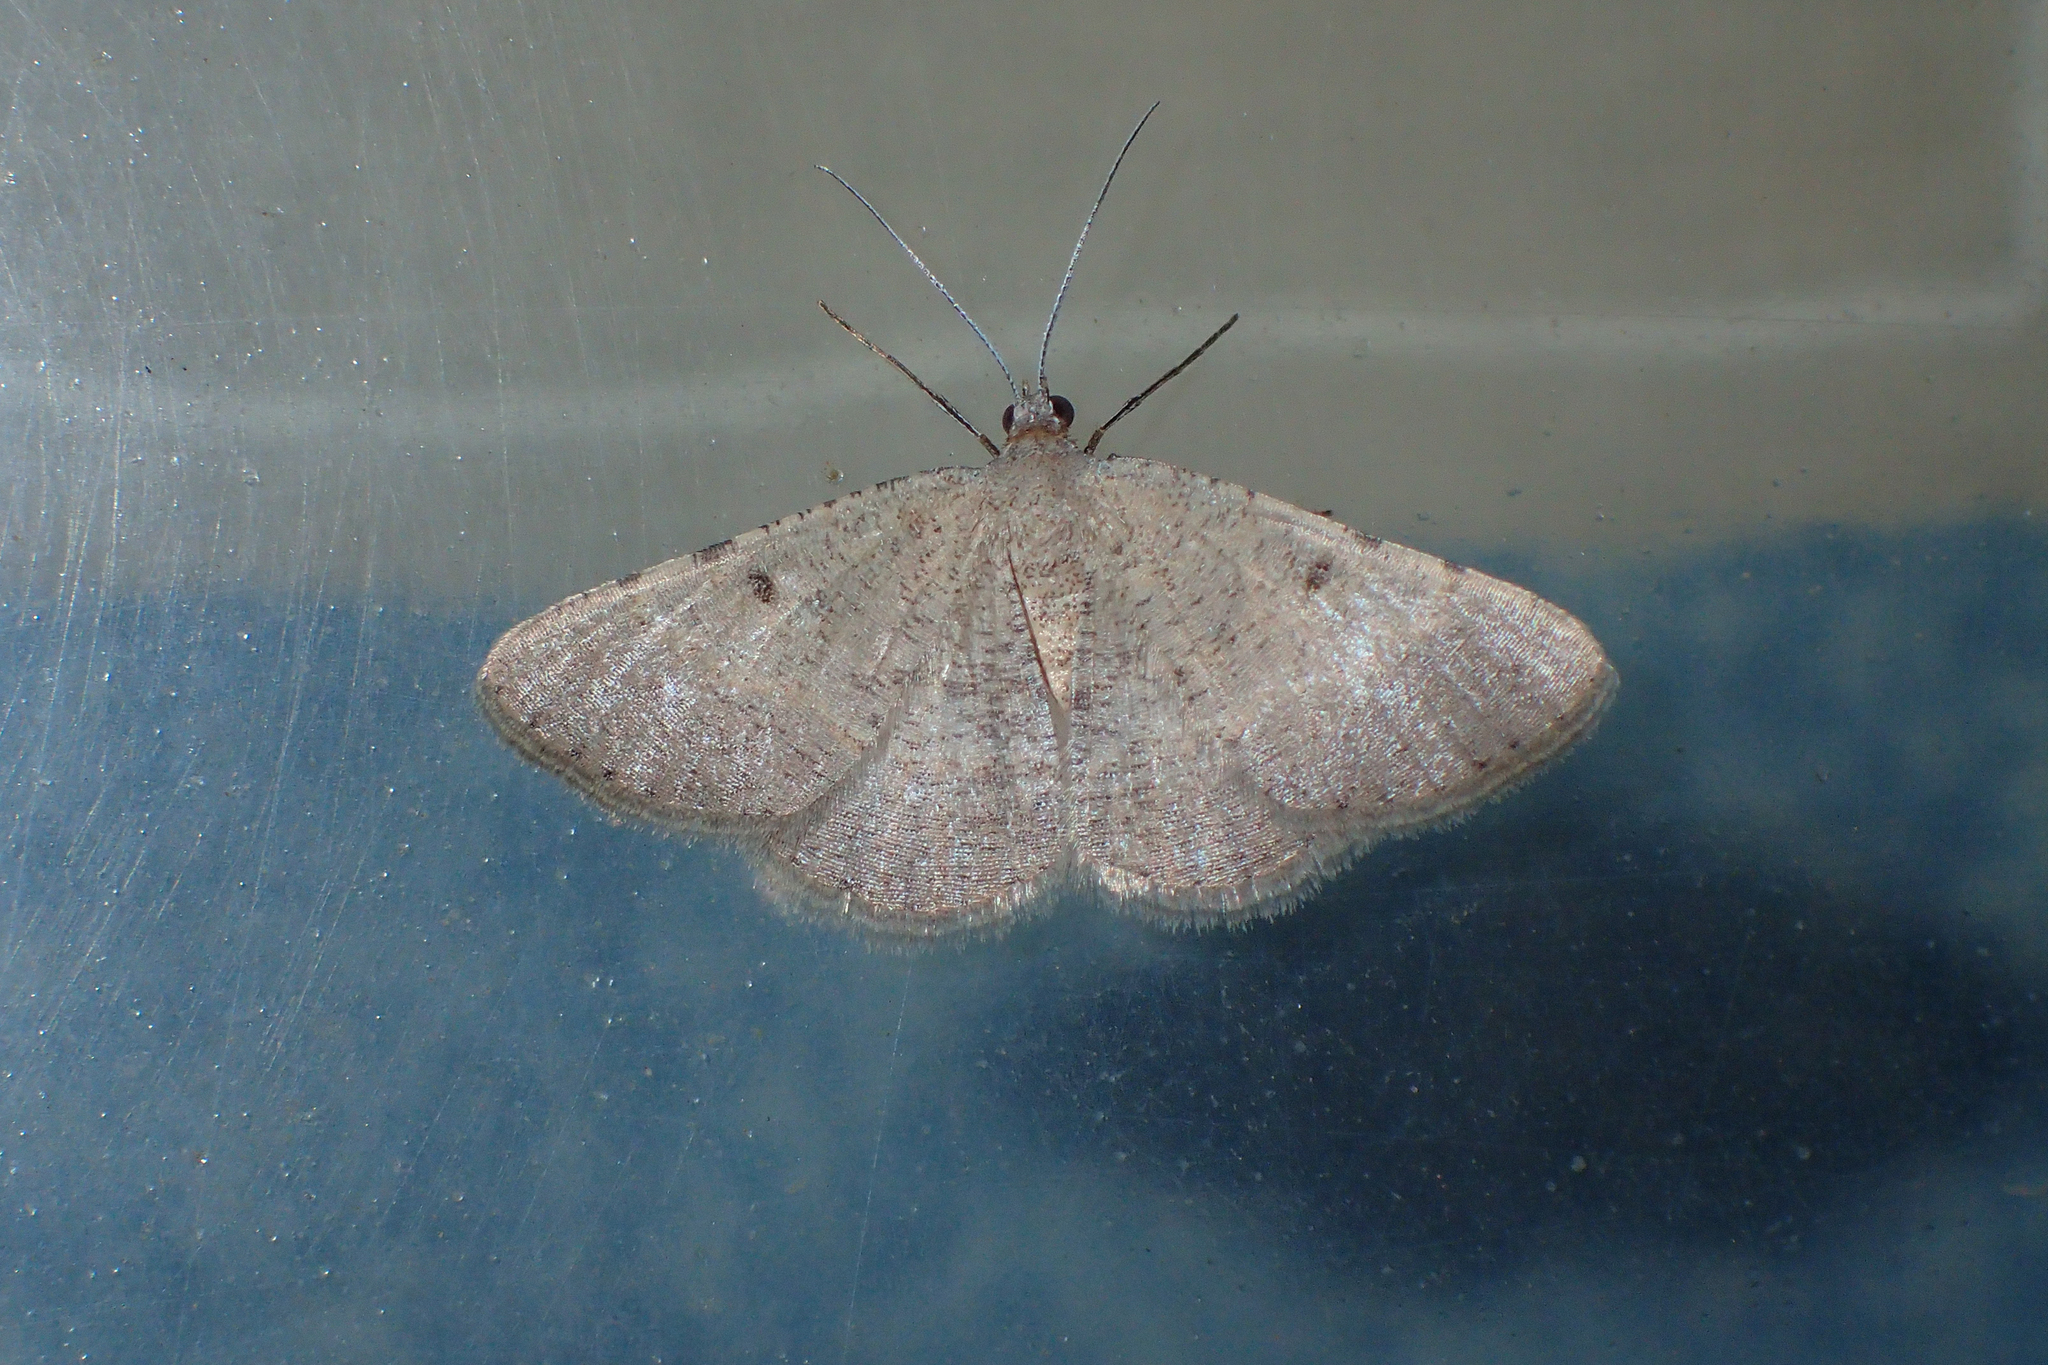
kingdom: Animalia
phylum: Arthropoda
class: Insecta
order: Lepidoptera
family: Geometridae
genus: Acanthovalva
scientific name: Acanthovalva inconspicuaria
